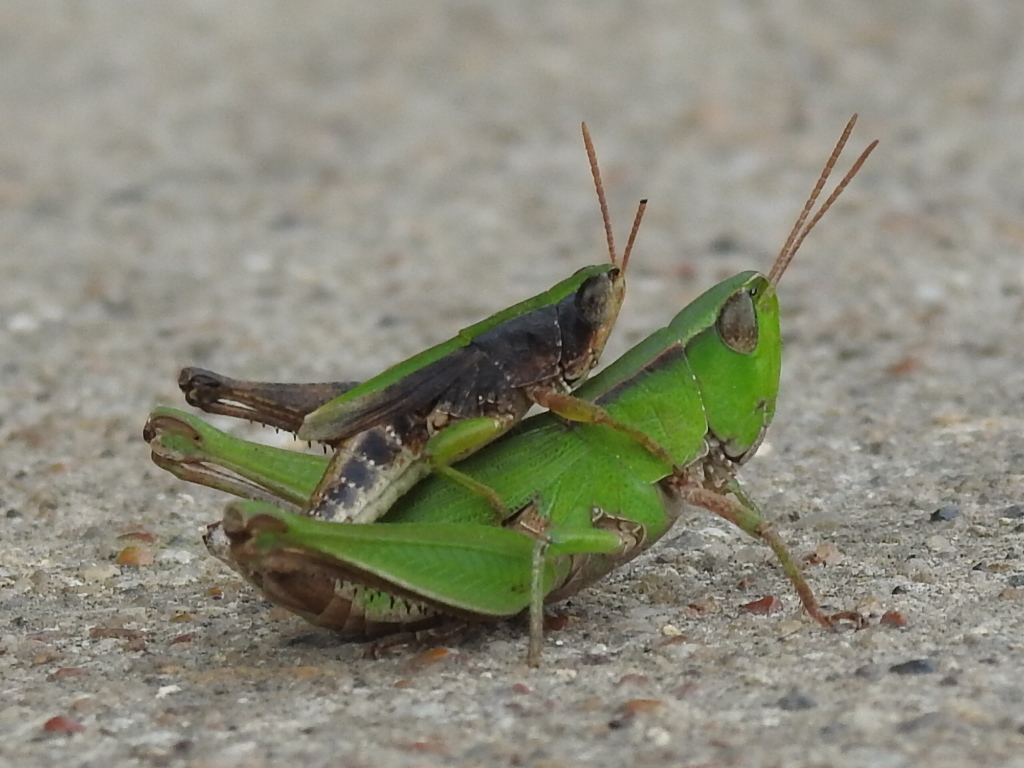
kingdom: Animalia
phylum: Arthropoda
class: Insecta
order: Orthoptera
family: Acrididae
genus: Dichromorpha
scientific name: Dichromorpha viridis
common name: Short-winged green grasshopper
